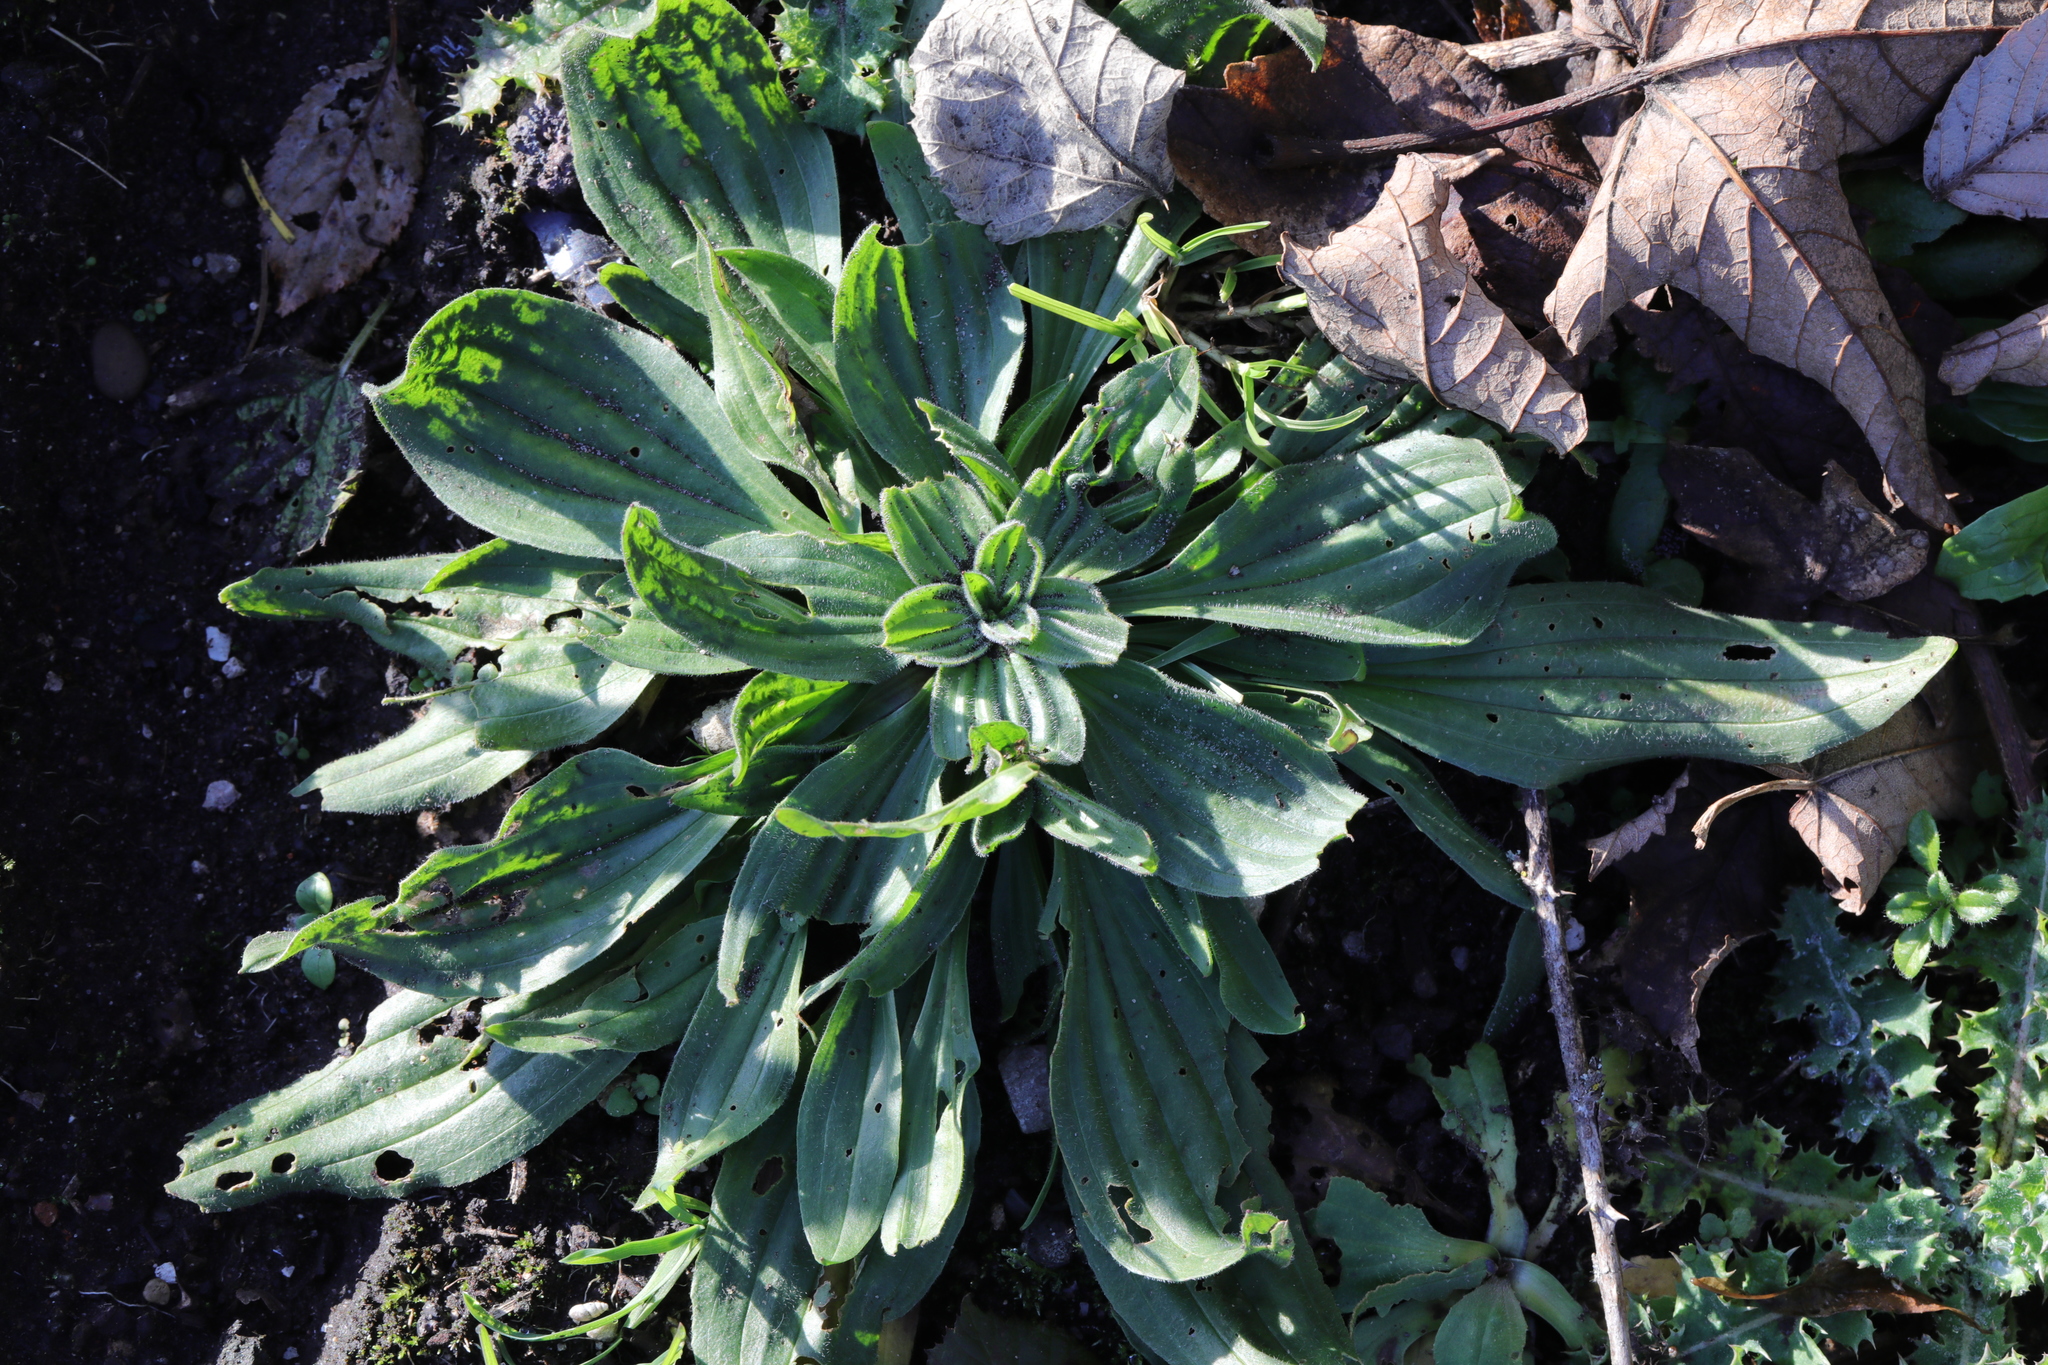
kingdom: Plantae
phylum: Tracheophyta
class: Magnoliopsida
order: Lamiales
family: Plantaginaceae
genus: Plantago
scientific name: Plantago lanceolata
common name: Ribwort plantain
